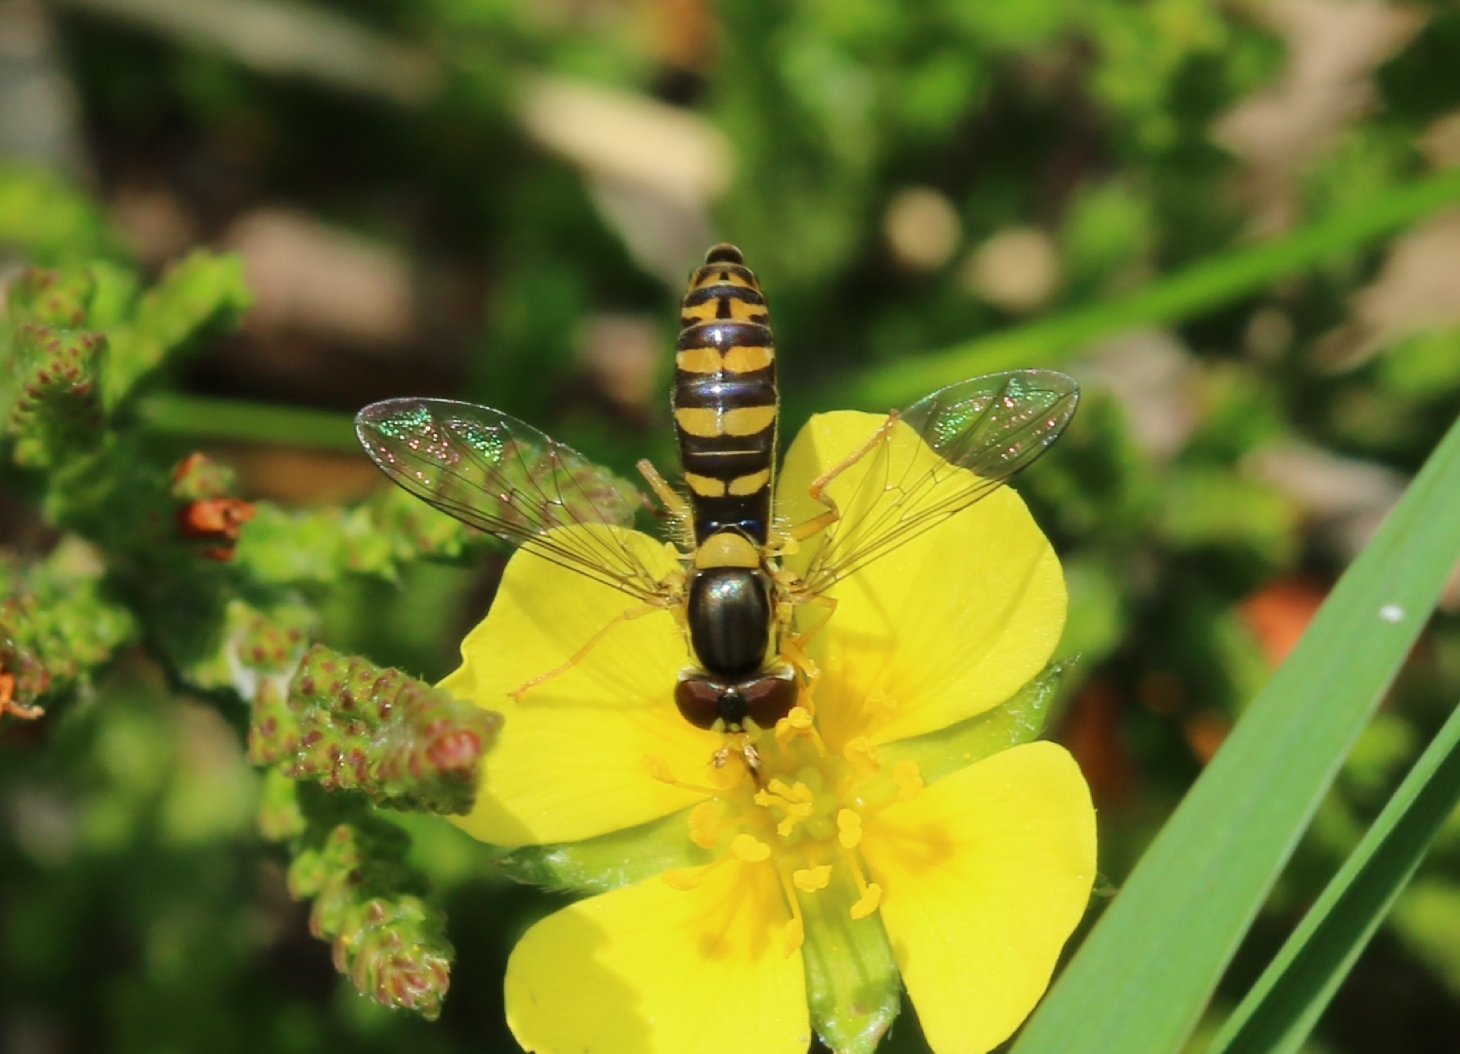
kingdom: Animalia
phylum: Arthropoda
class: Insecta
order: Diptera
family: Syrphidae
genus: Sphaerophoria
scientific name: Sphaerophoria
